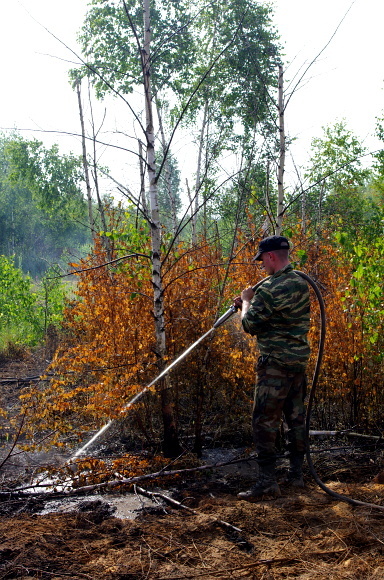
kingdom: Plantae
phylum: Tracheophyta
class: Magnoliopsida
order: Fagales
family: Betulaceae
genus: Betula
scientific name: Betula pendula
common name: Silver birch
